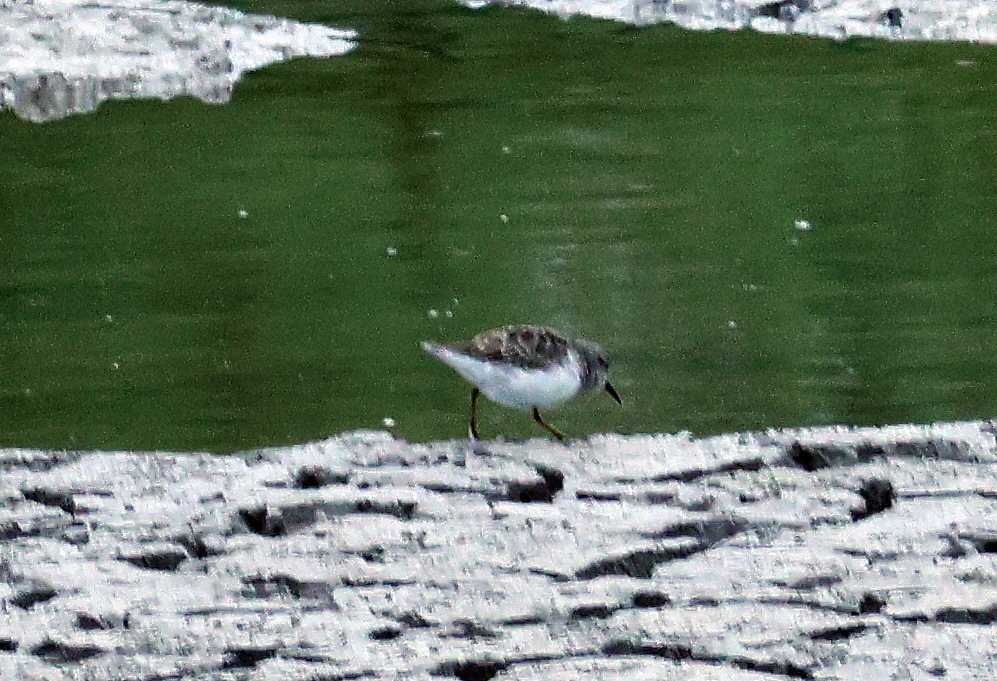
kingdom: Animalia
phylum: Chordata
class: Aves
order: Charadriiformes
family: Scolopacidae
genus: Calidris
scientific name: Calidris minutilla
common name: Least sandpiper
